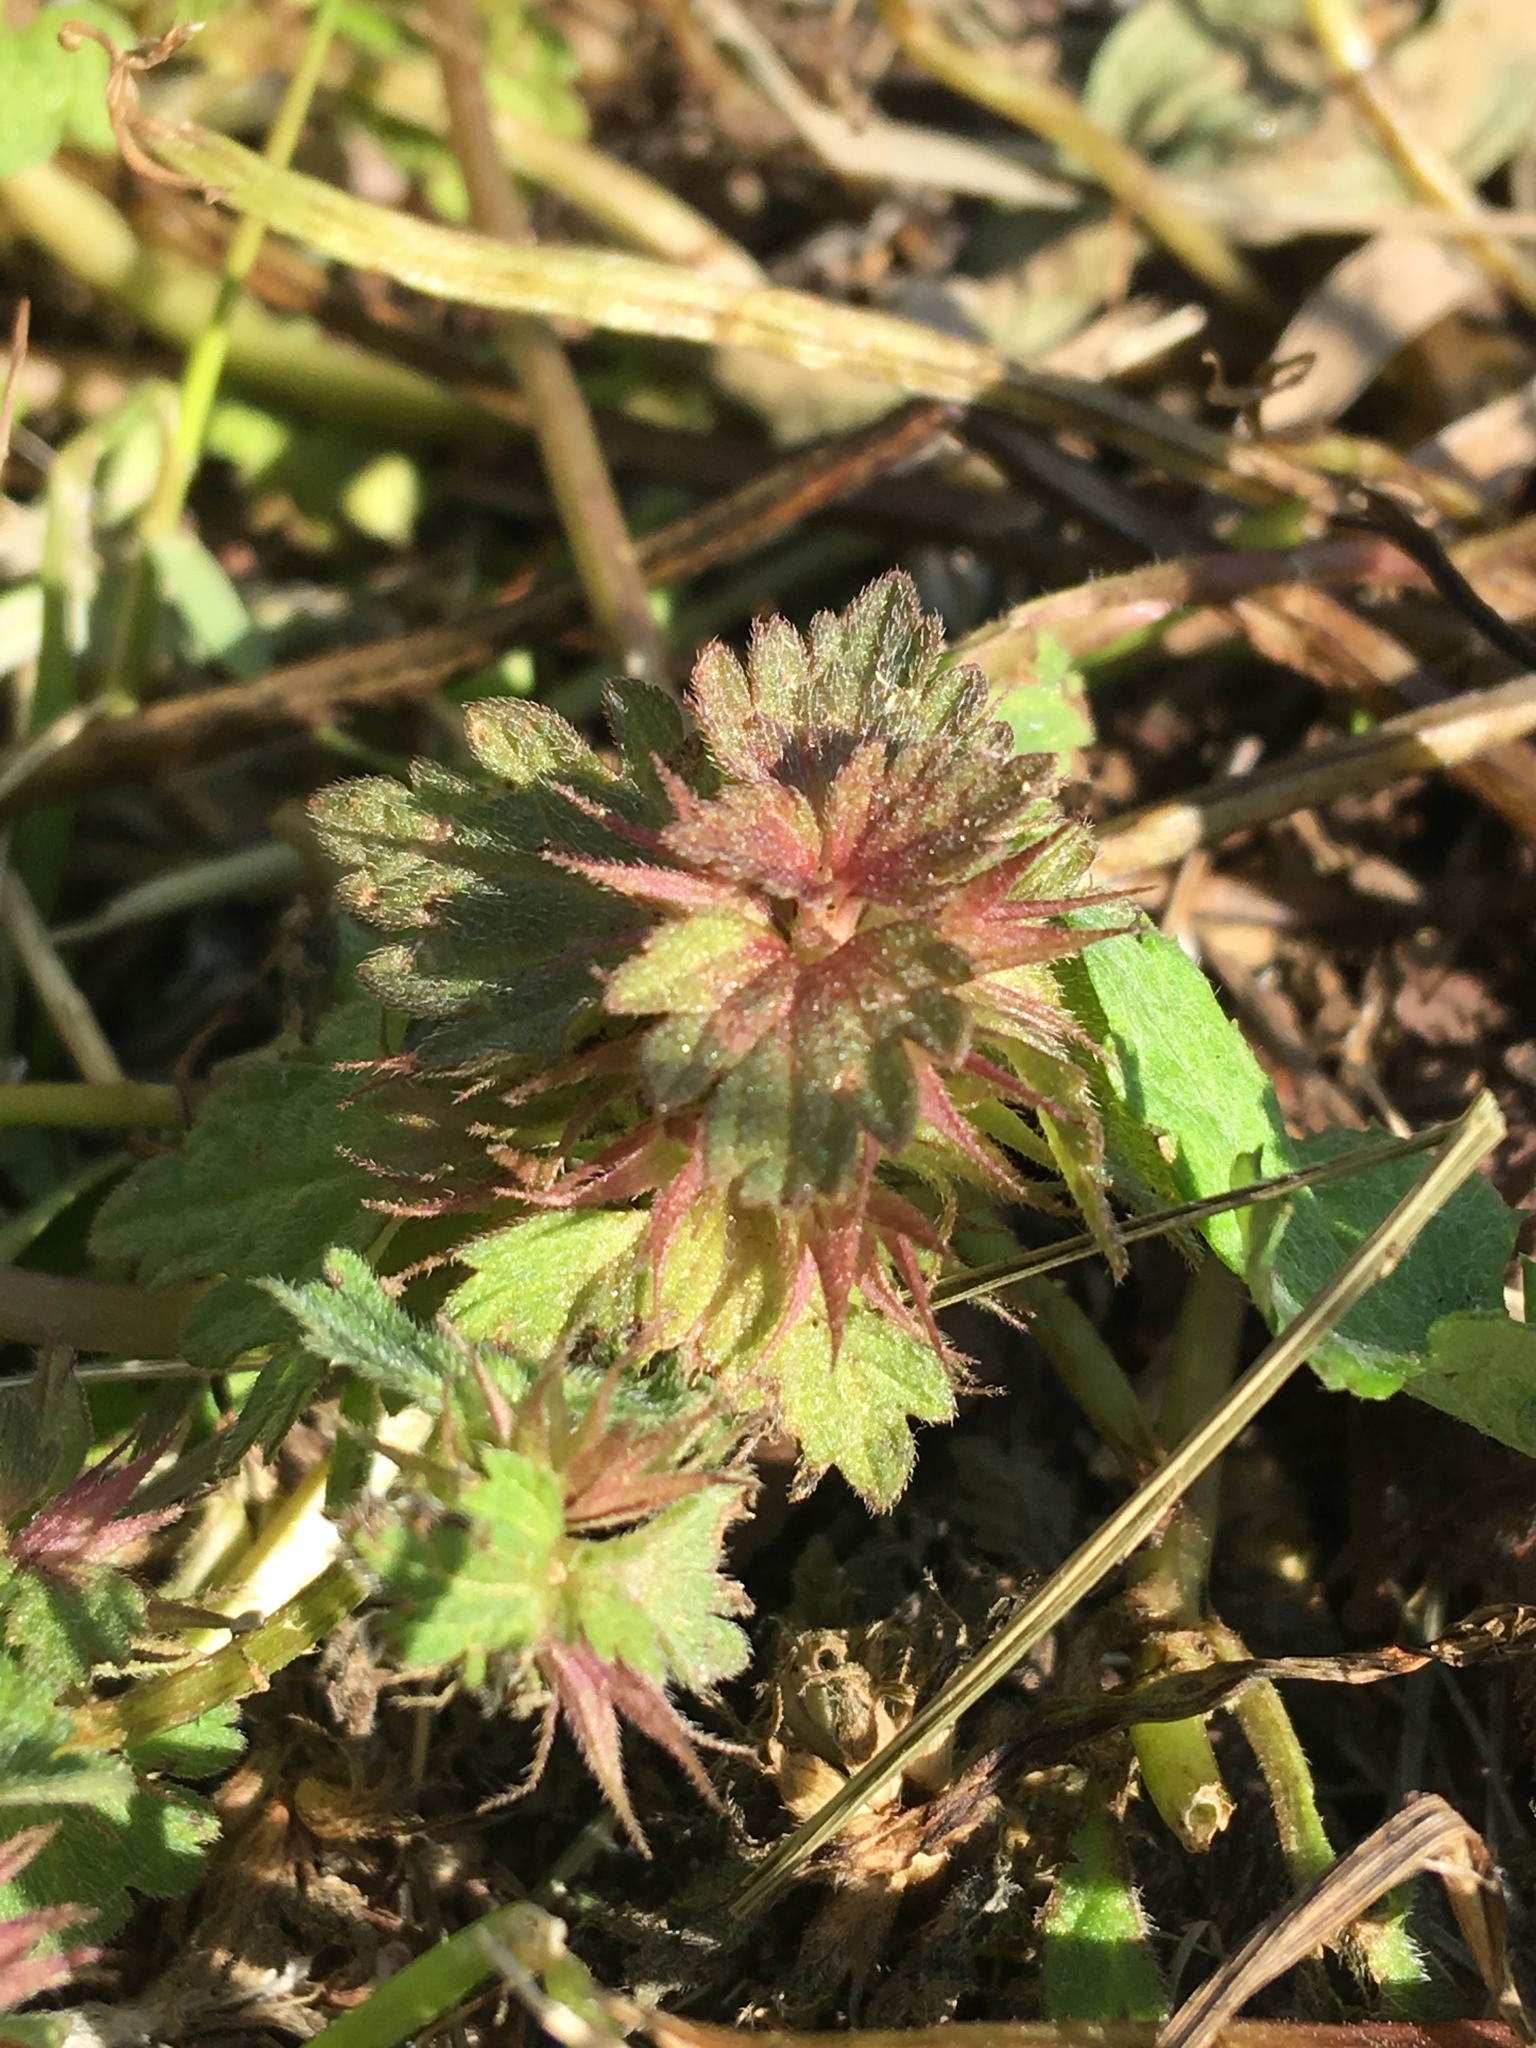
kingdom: Plantae
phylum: Tracheophyta
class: Magnoliopsida
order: Lamiales
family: Lamiaceae
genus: Lamium
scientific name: Lamium hybridum
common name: Cut-leaved dead-nettle
